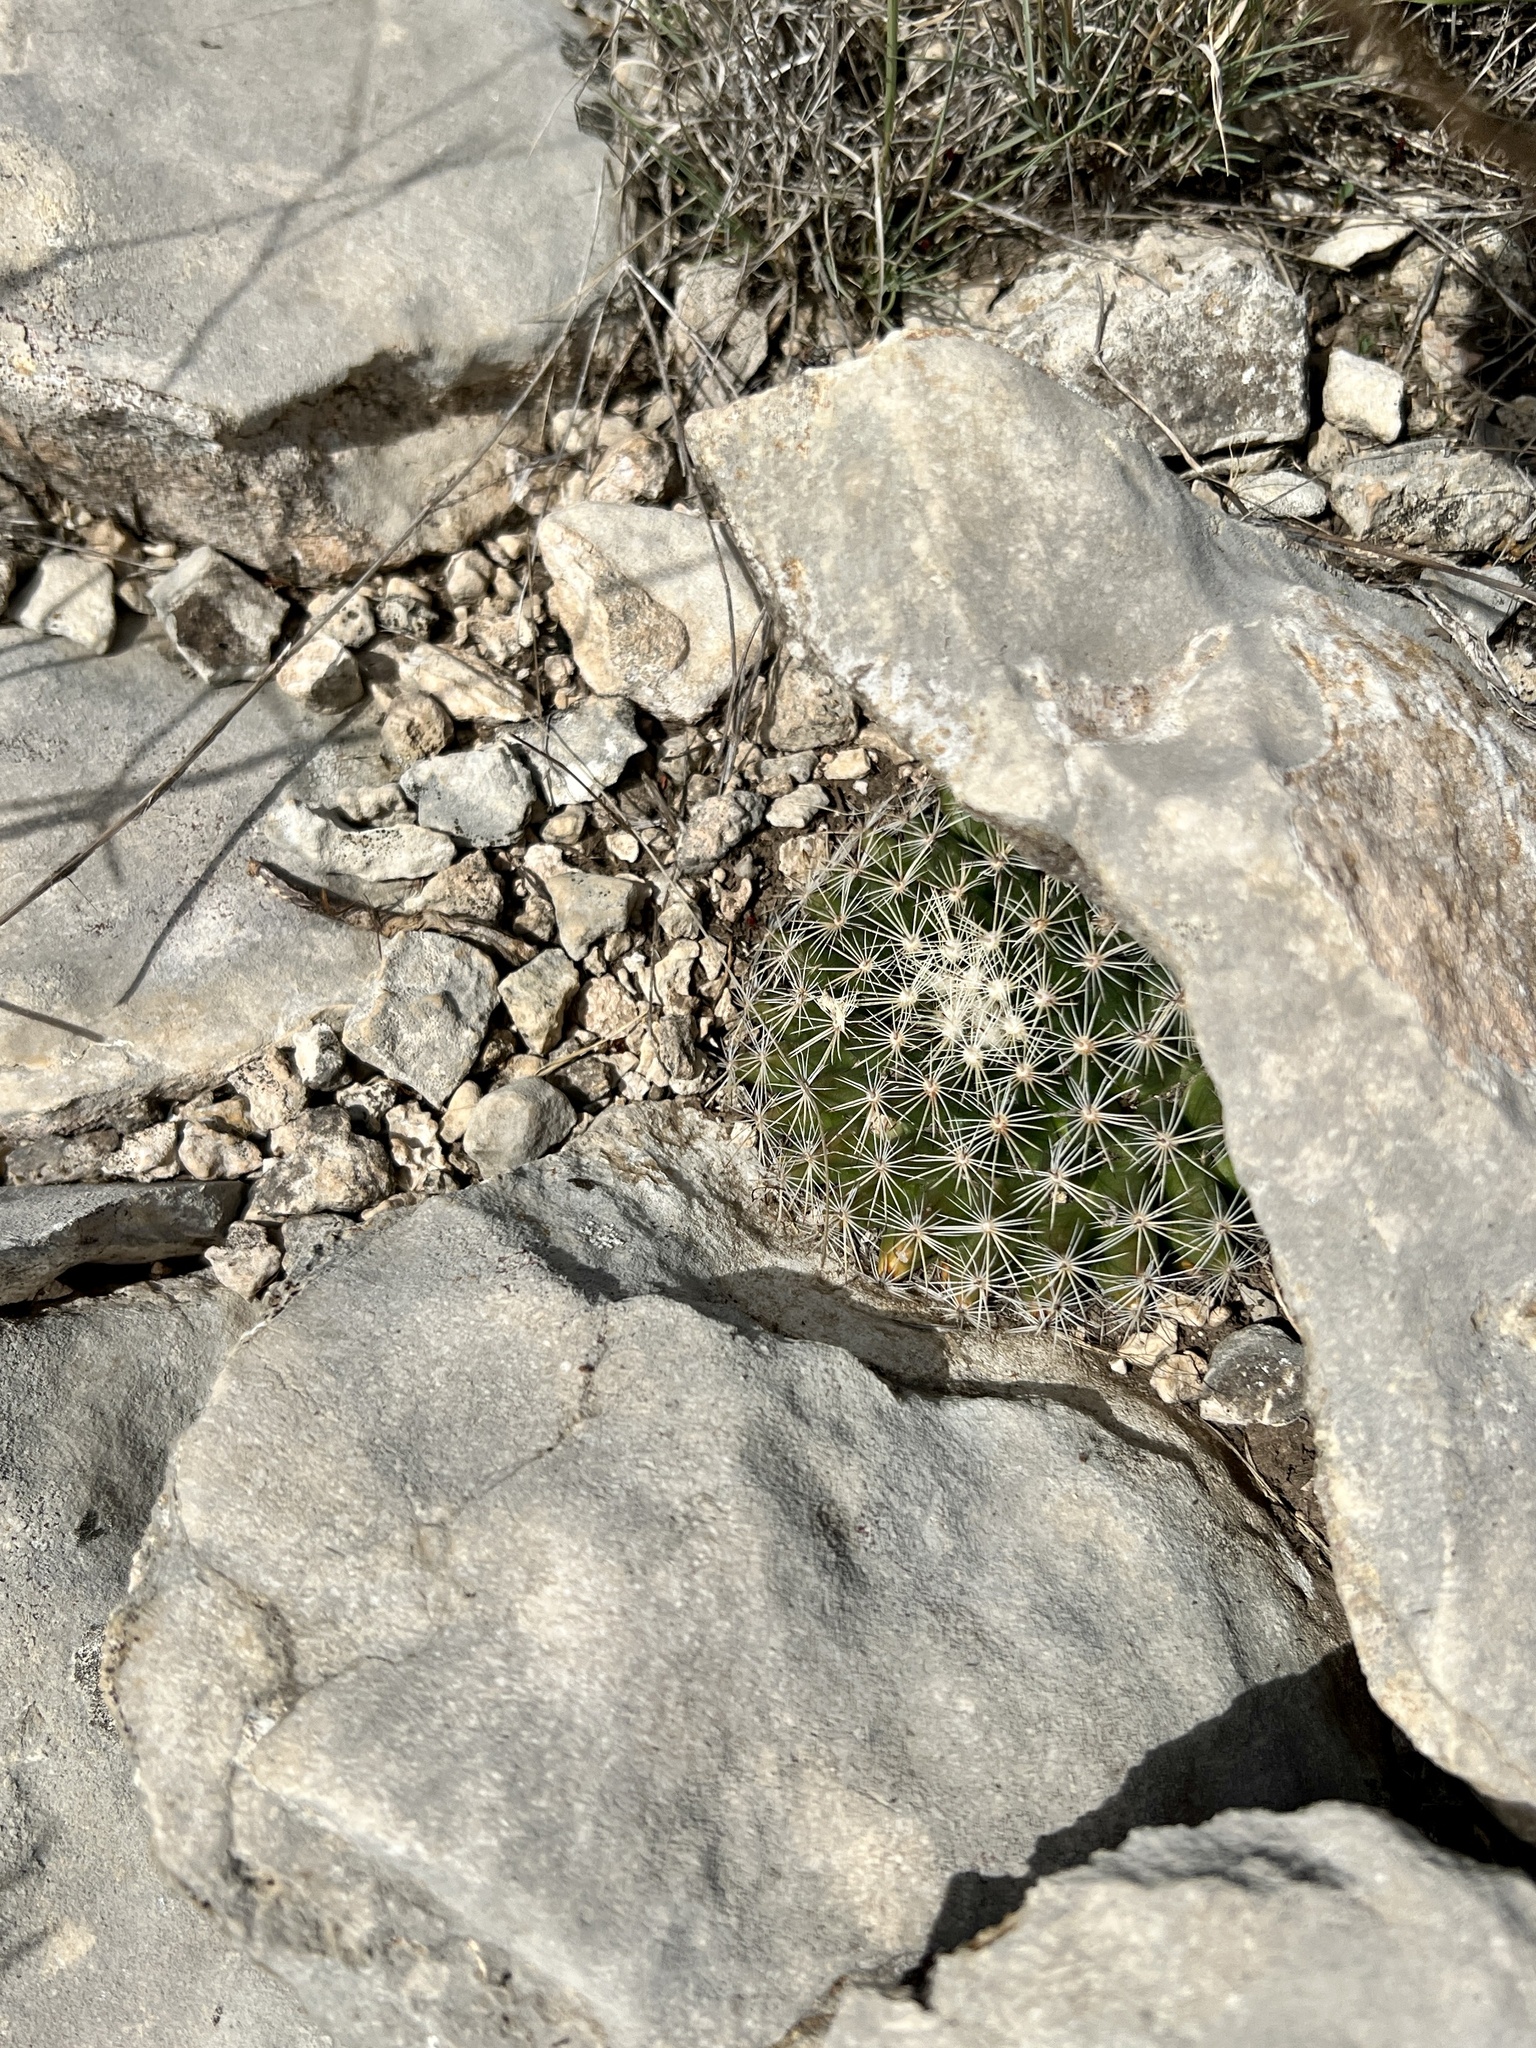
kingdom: Plantae
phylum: Tracheophyta
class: Magnoliopsida
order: Caryophyllales
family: Cactaceae
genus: Mammillaria
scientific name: Mammillaria heyderi
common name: Little nipple cactus
